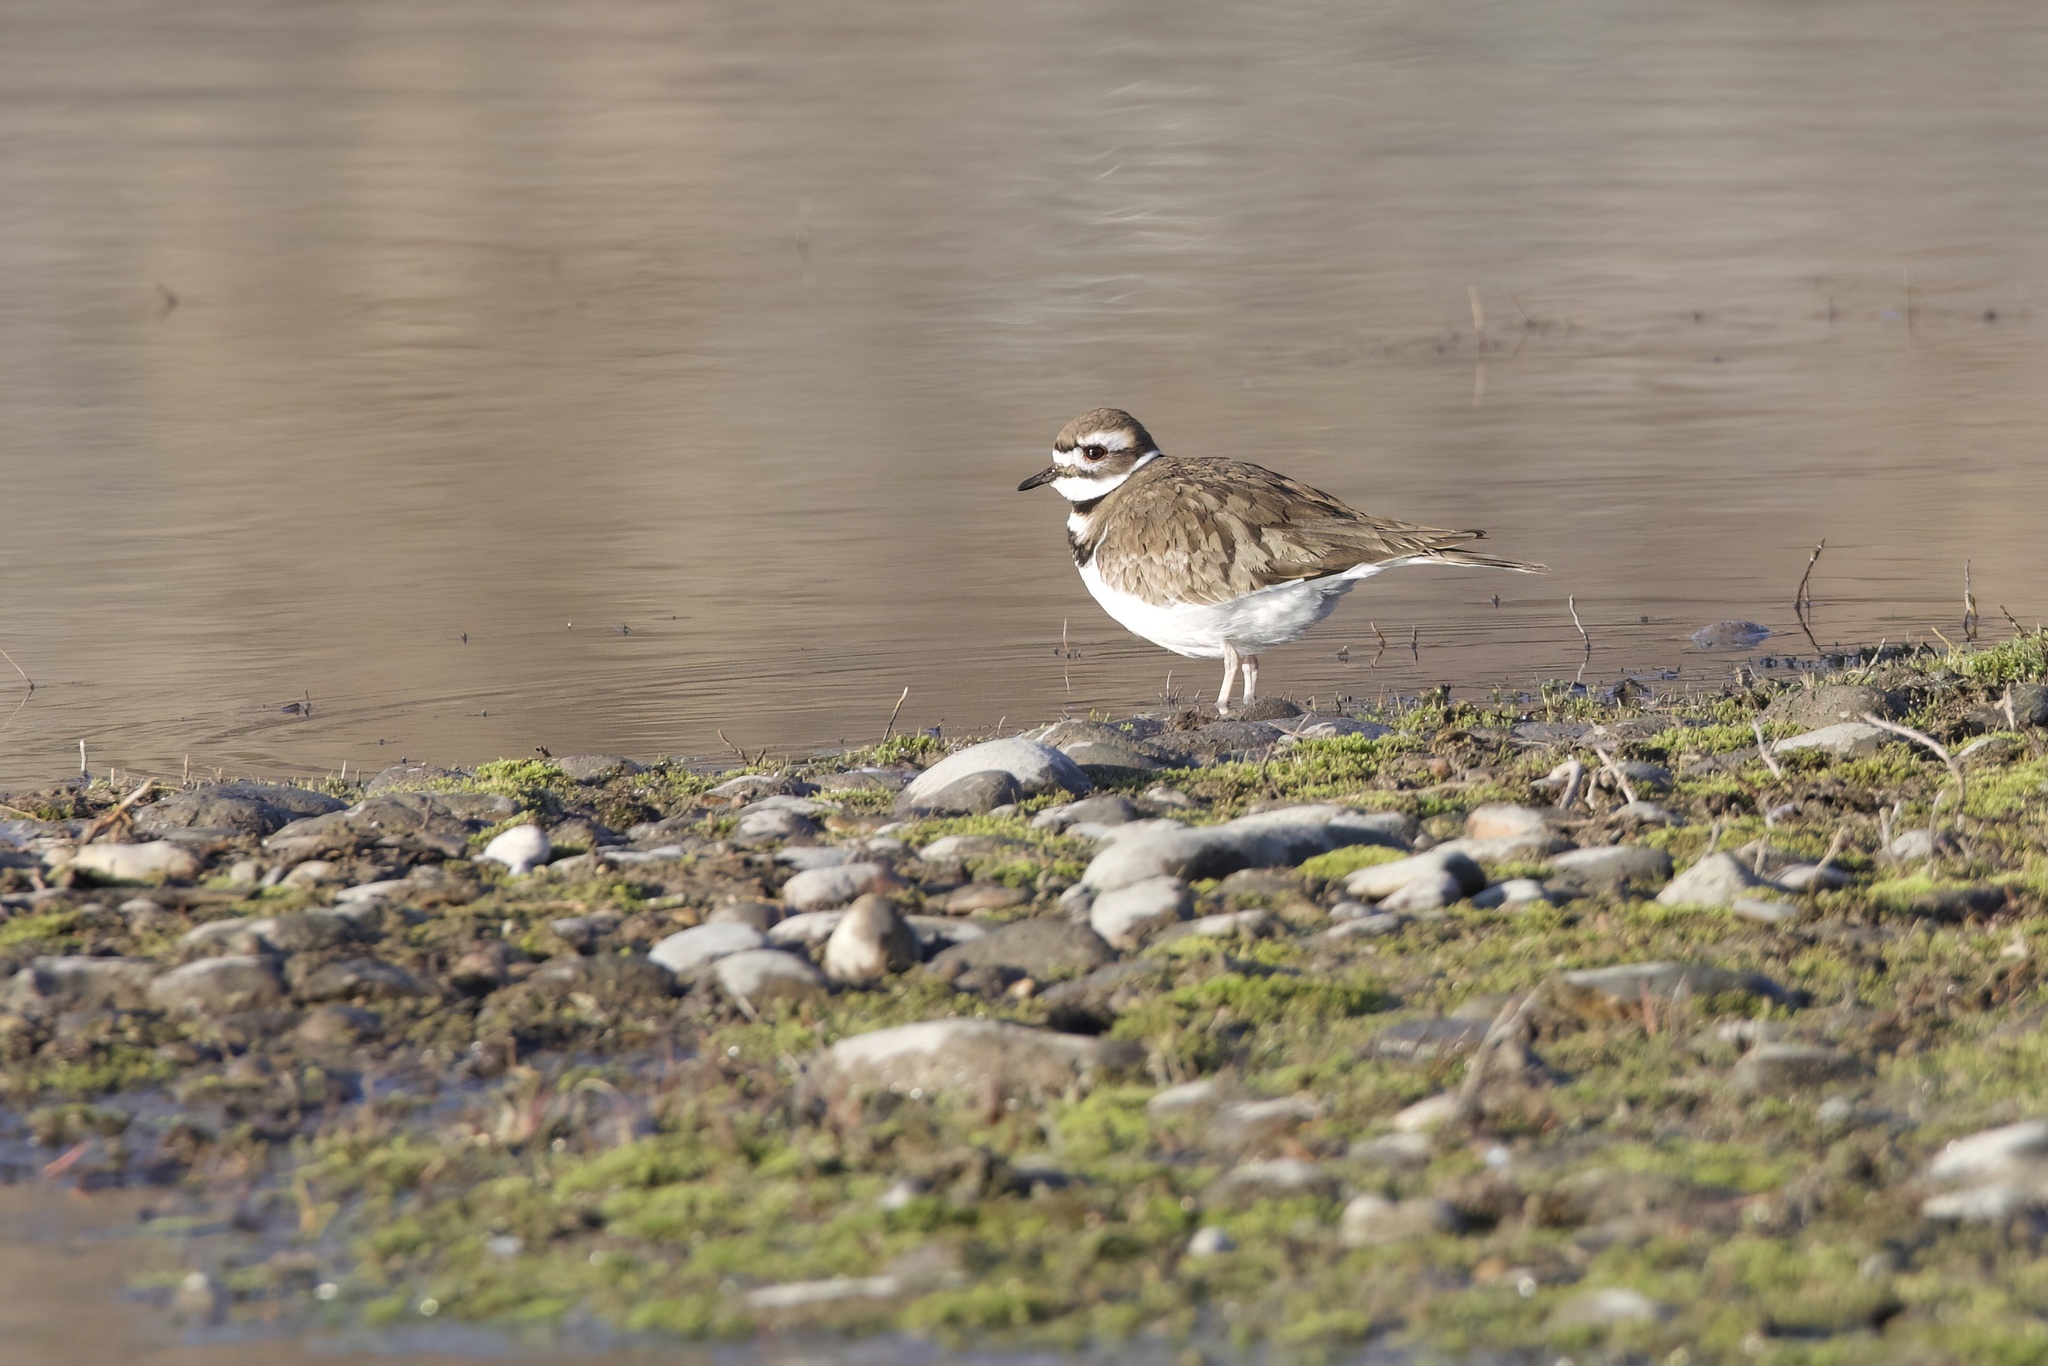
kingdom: Animalia
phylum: Chordata
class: Aves
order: Charadriiformes
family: Charadriidae
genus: Charadrius
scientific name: Charadrius vociferus
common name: Killdeer
